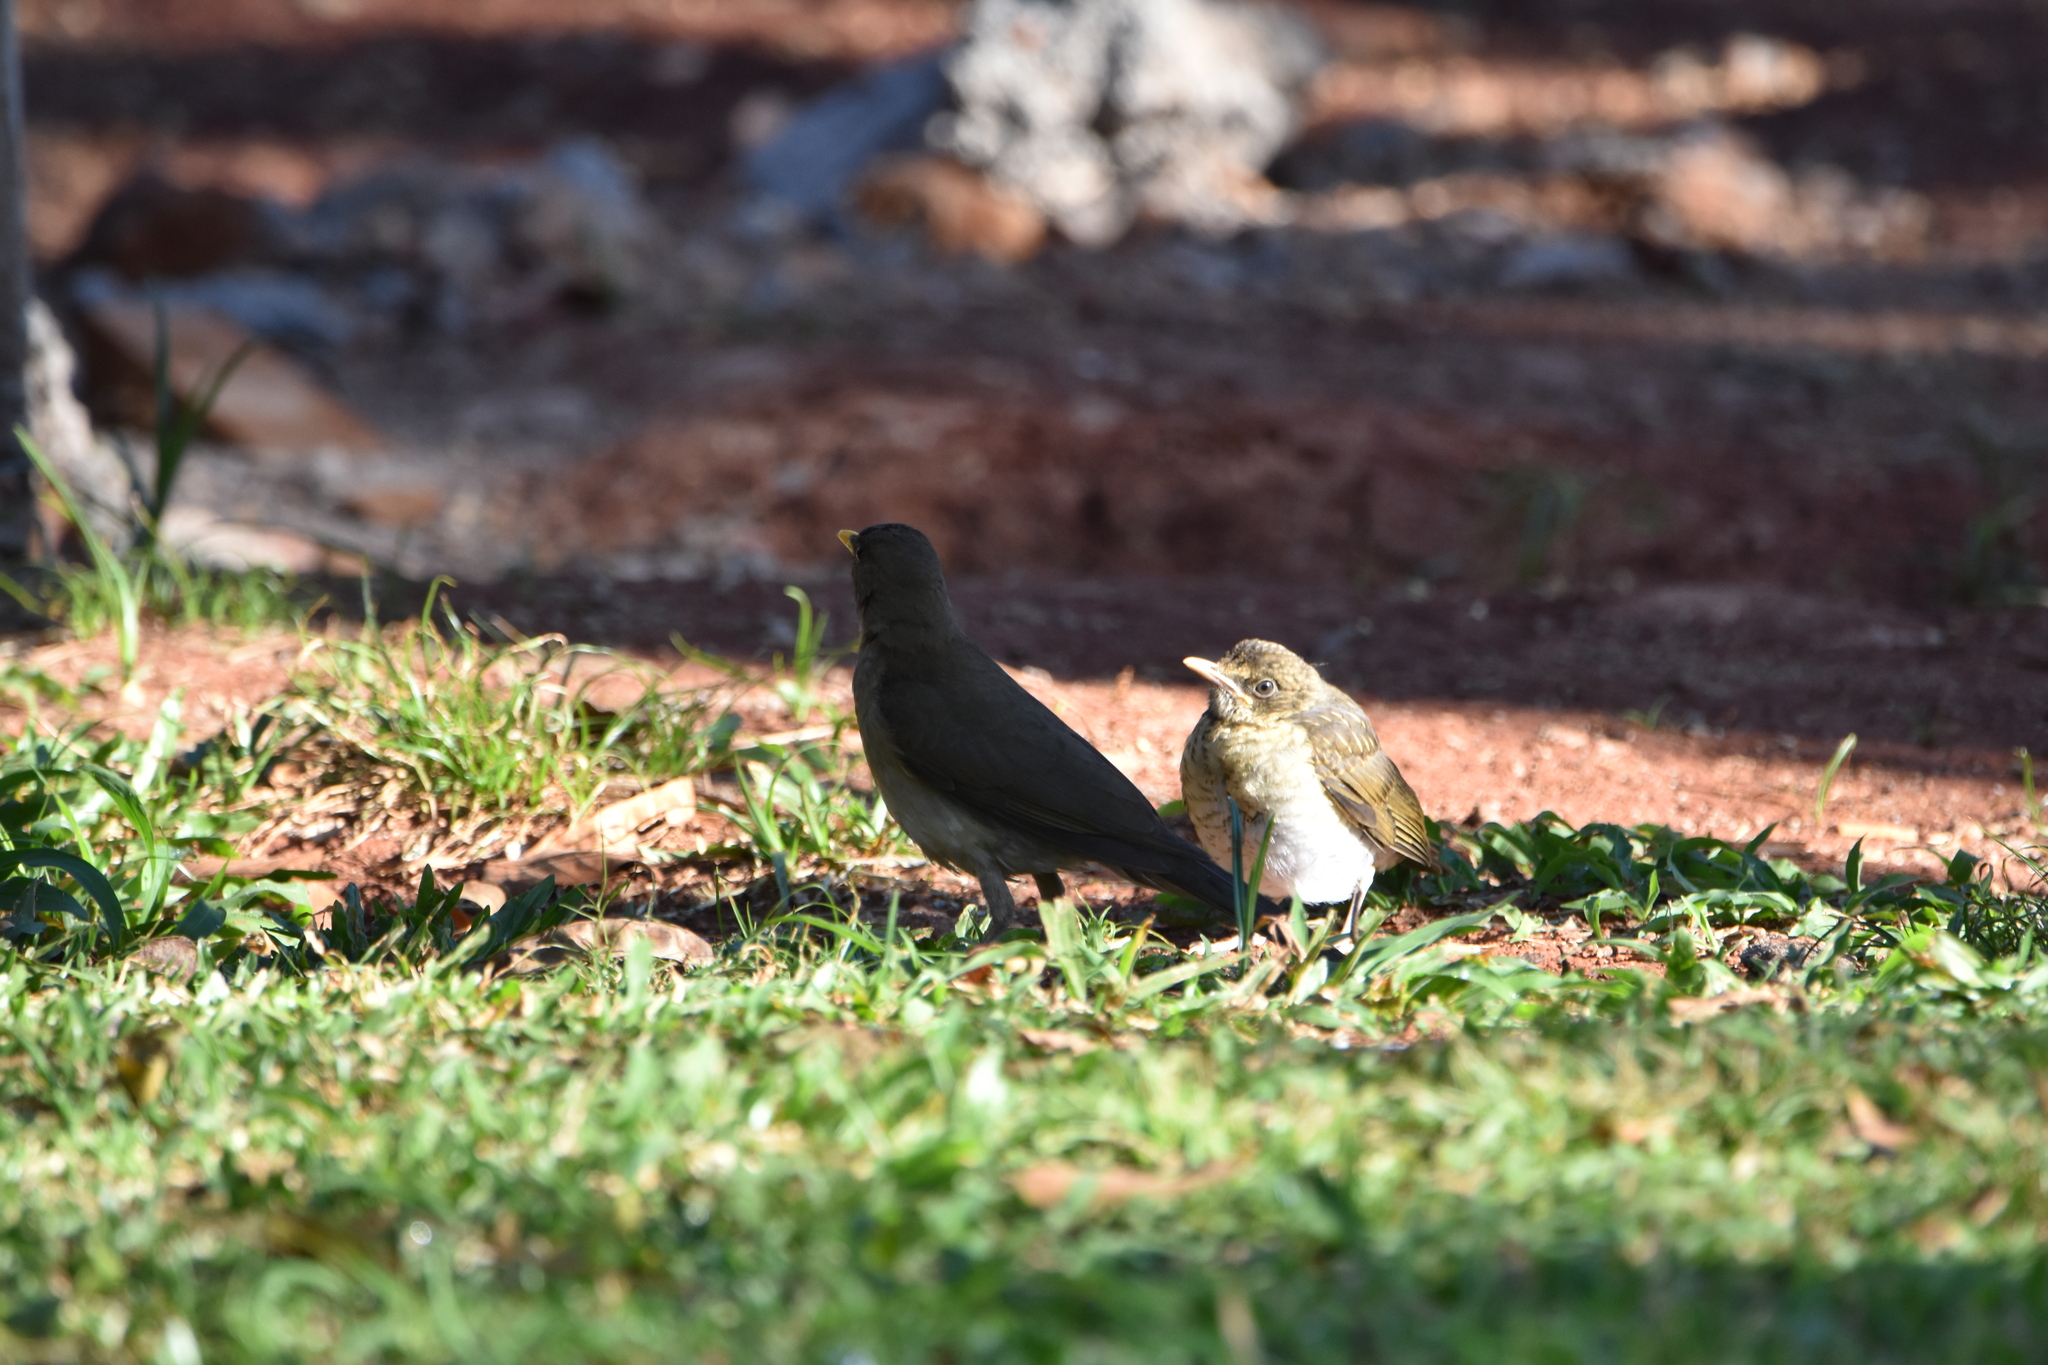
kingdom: Animalia
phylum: Chordata
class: Aves
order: Passeriformes
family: Turdidae
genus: Turdus
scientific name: Turdus amaurochalinus
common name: Creamy-bellied thrush
